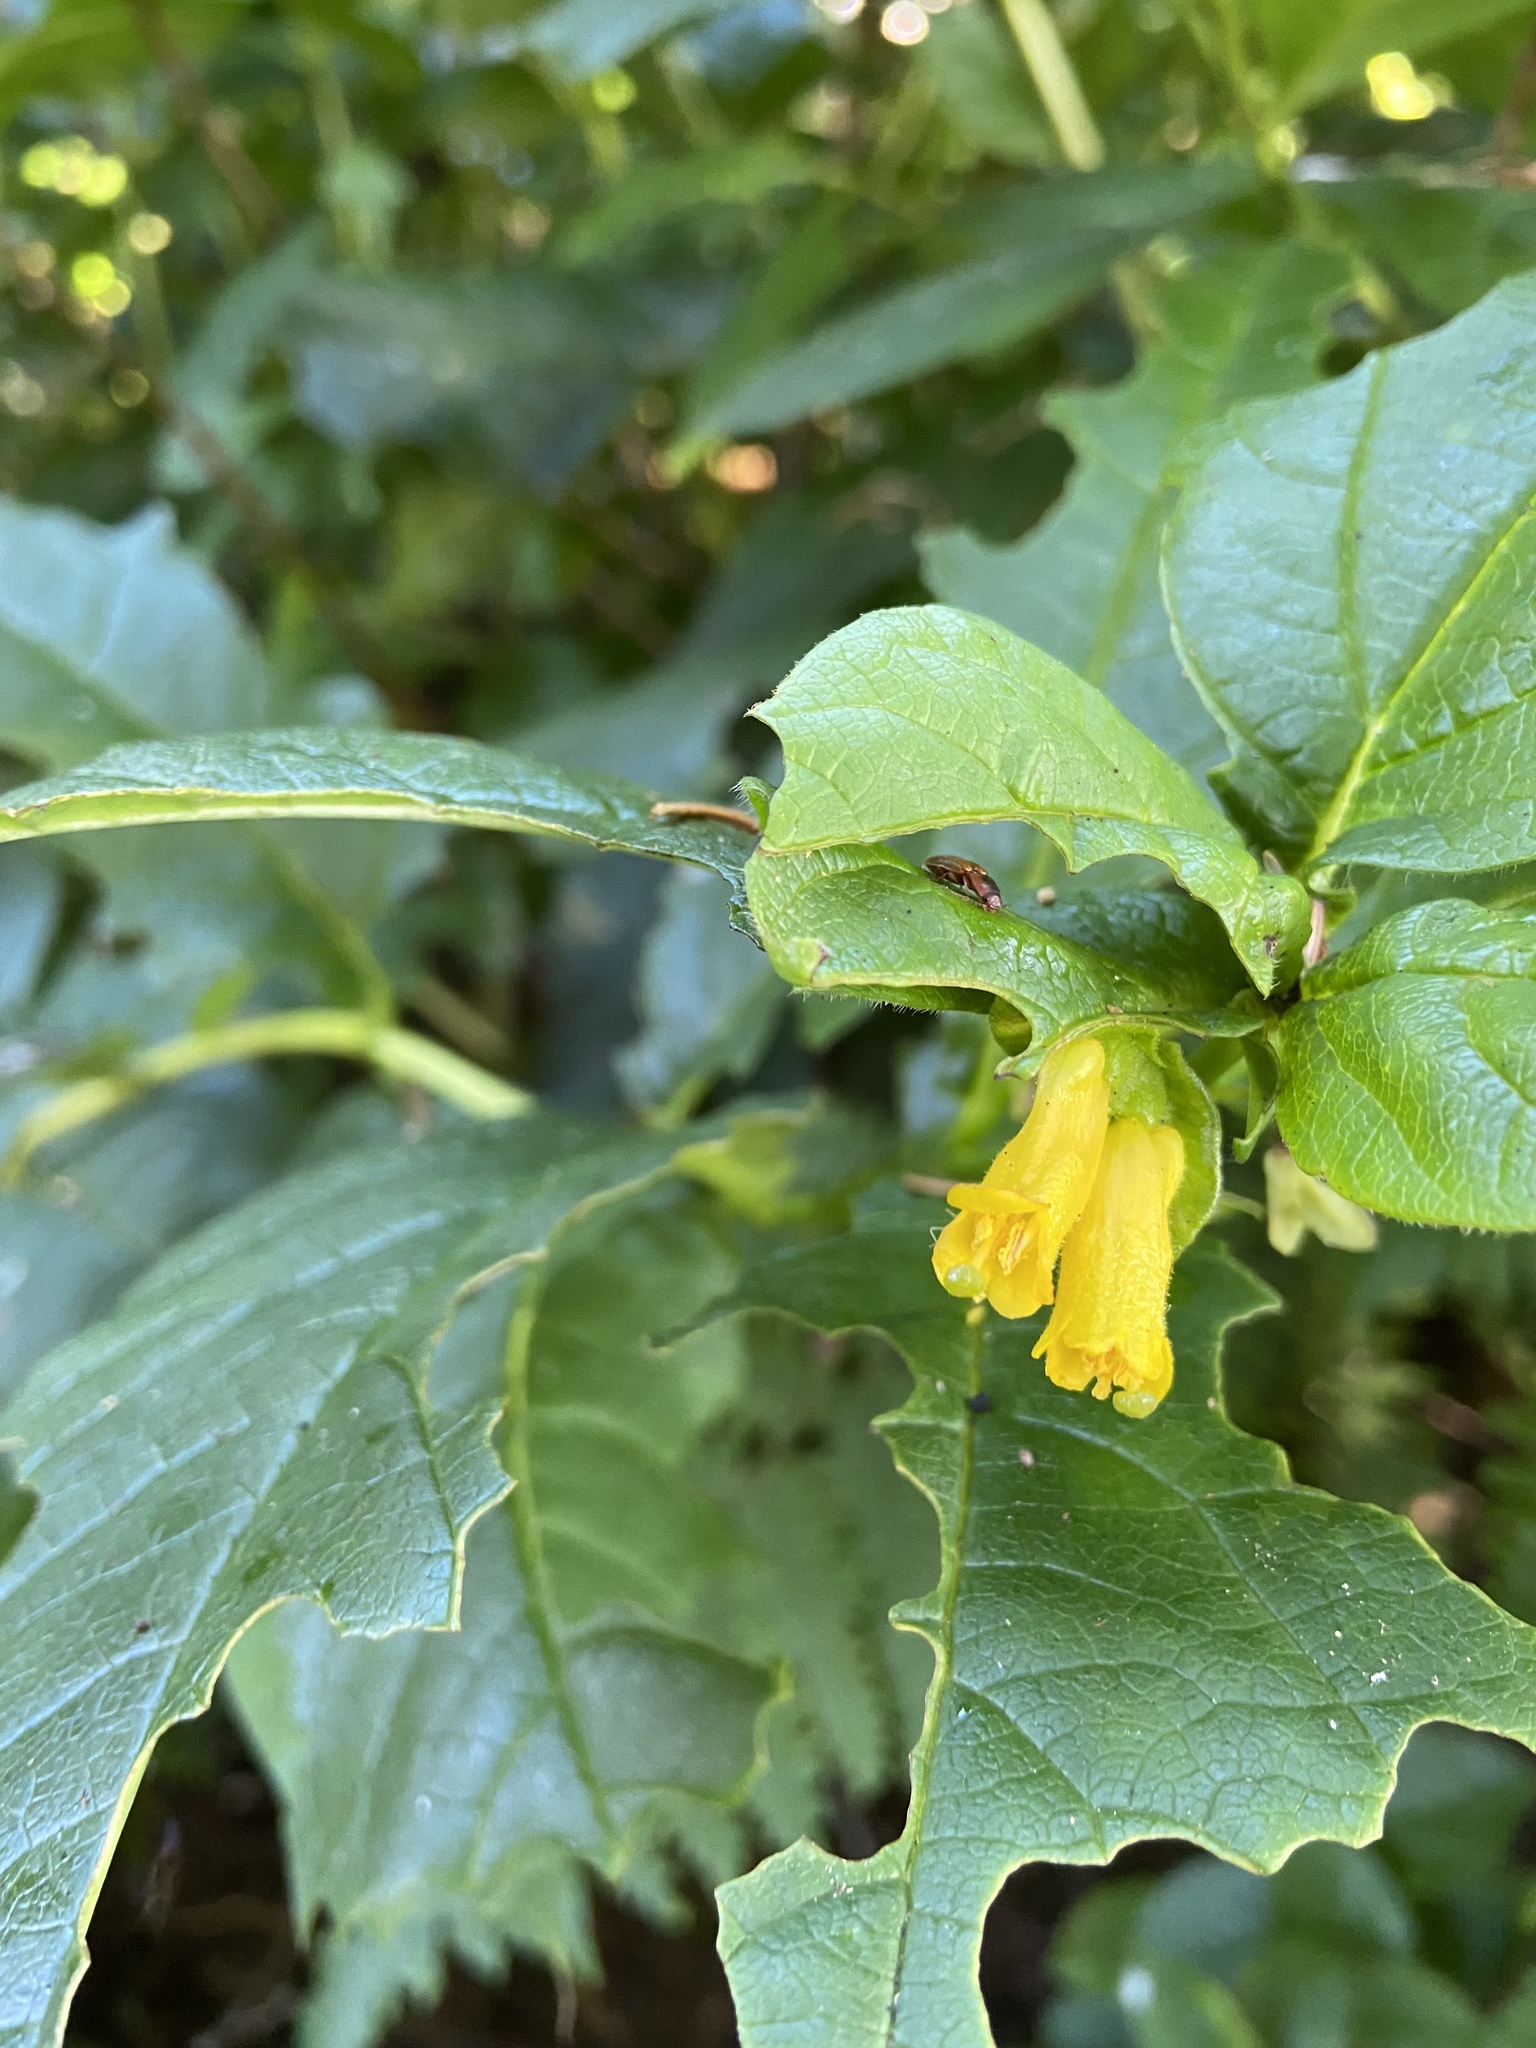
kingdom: Plantae
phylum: Tracheophyta
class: Magnoliopsida
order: Dipsacales
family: Caprifoliaceae
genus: Lonicera
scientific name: Lonicera involucrata
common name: Californian honeysuckle
